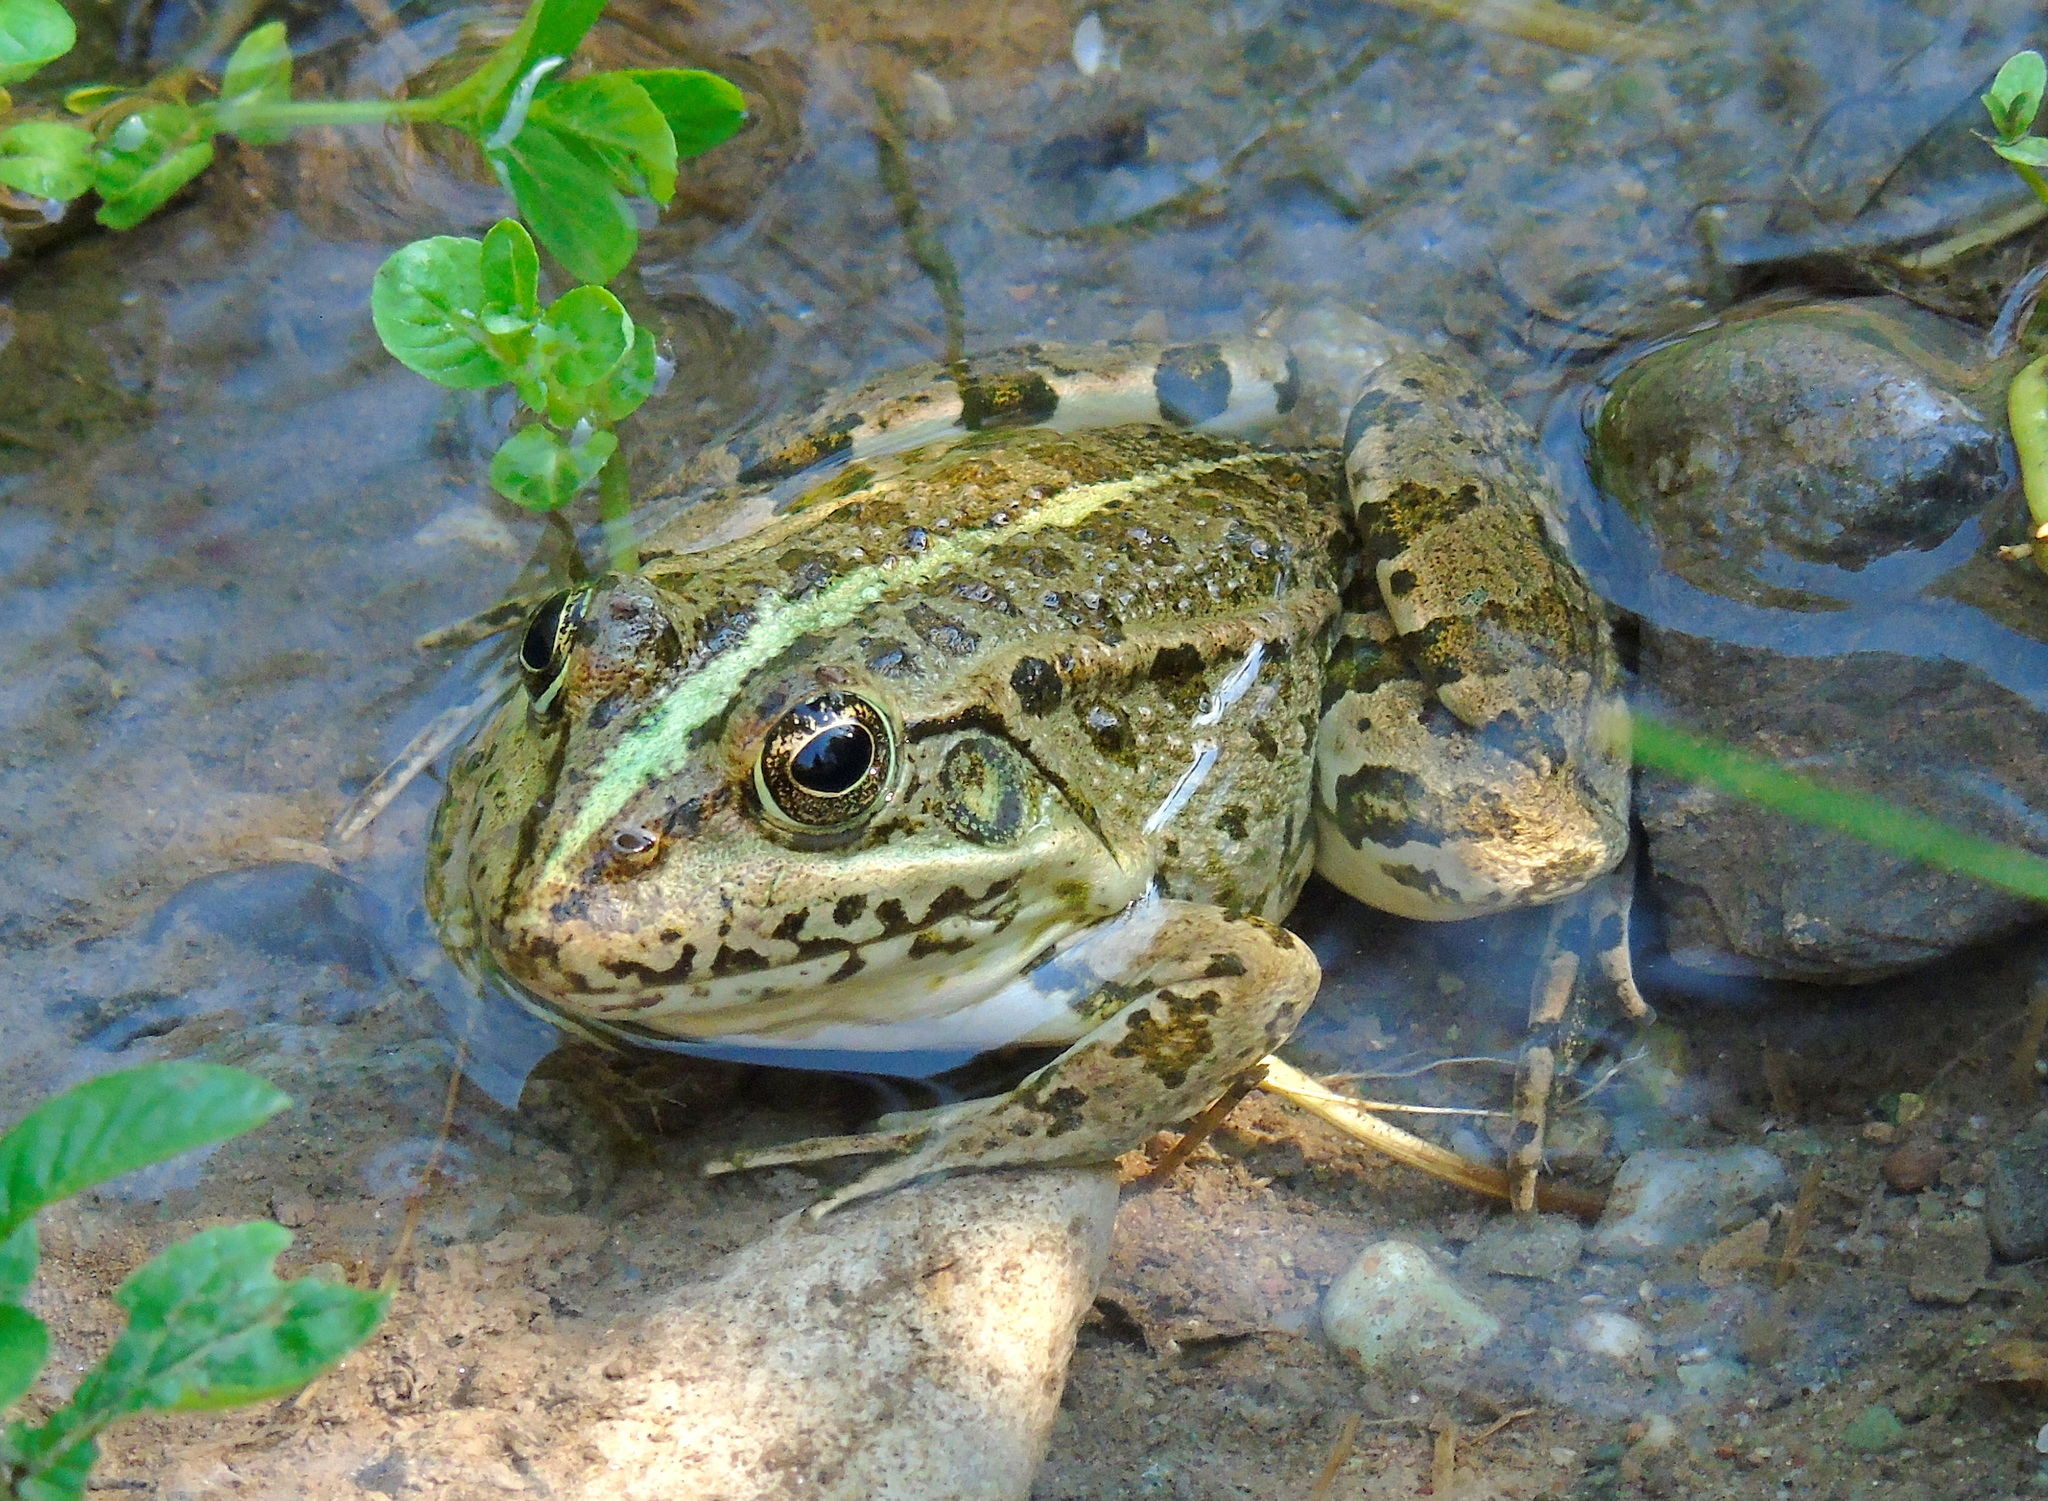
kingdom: Animalia
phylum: Chordata
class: Amphibia
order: Anura
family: Ranidae
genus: Pelophylax
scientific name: Pelophylax ridibundus
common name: Marsh frog
